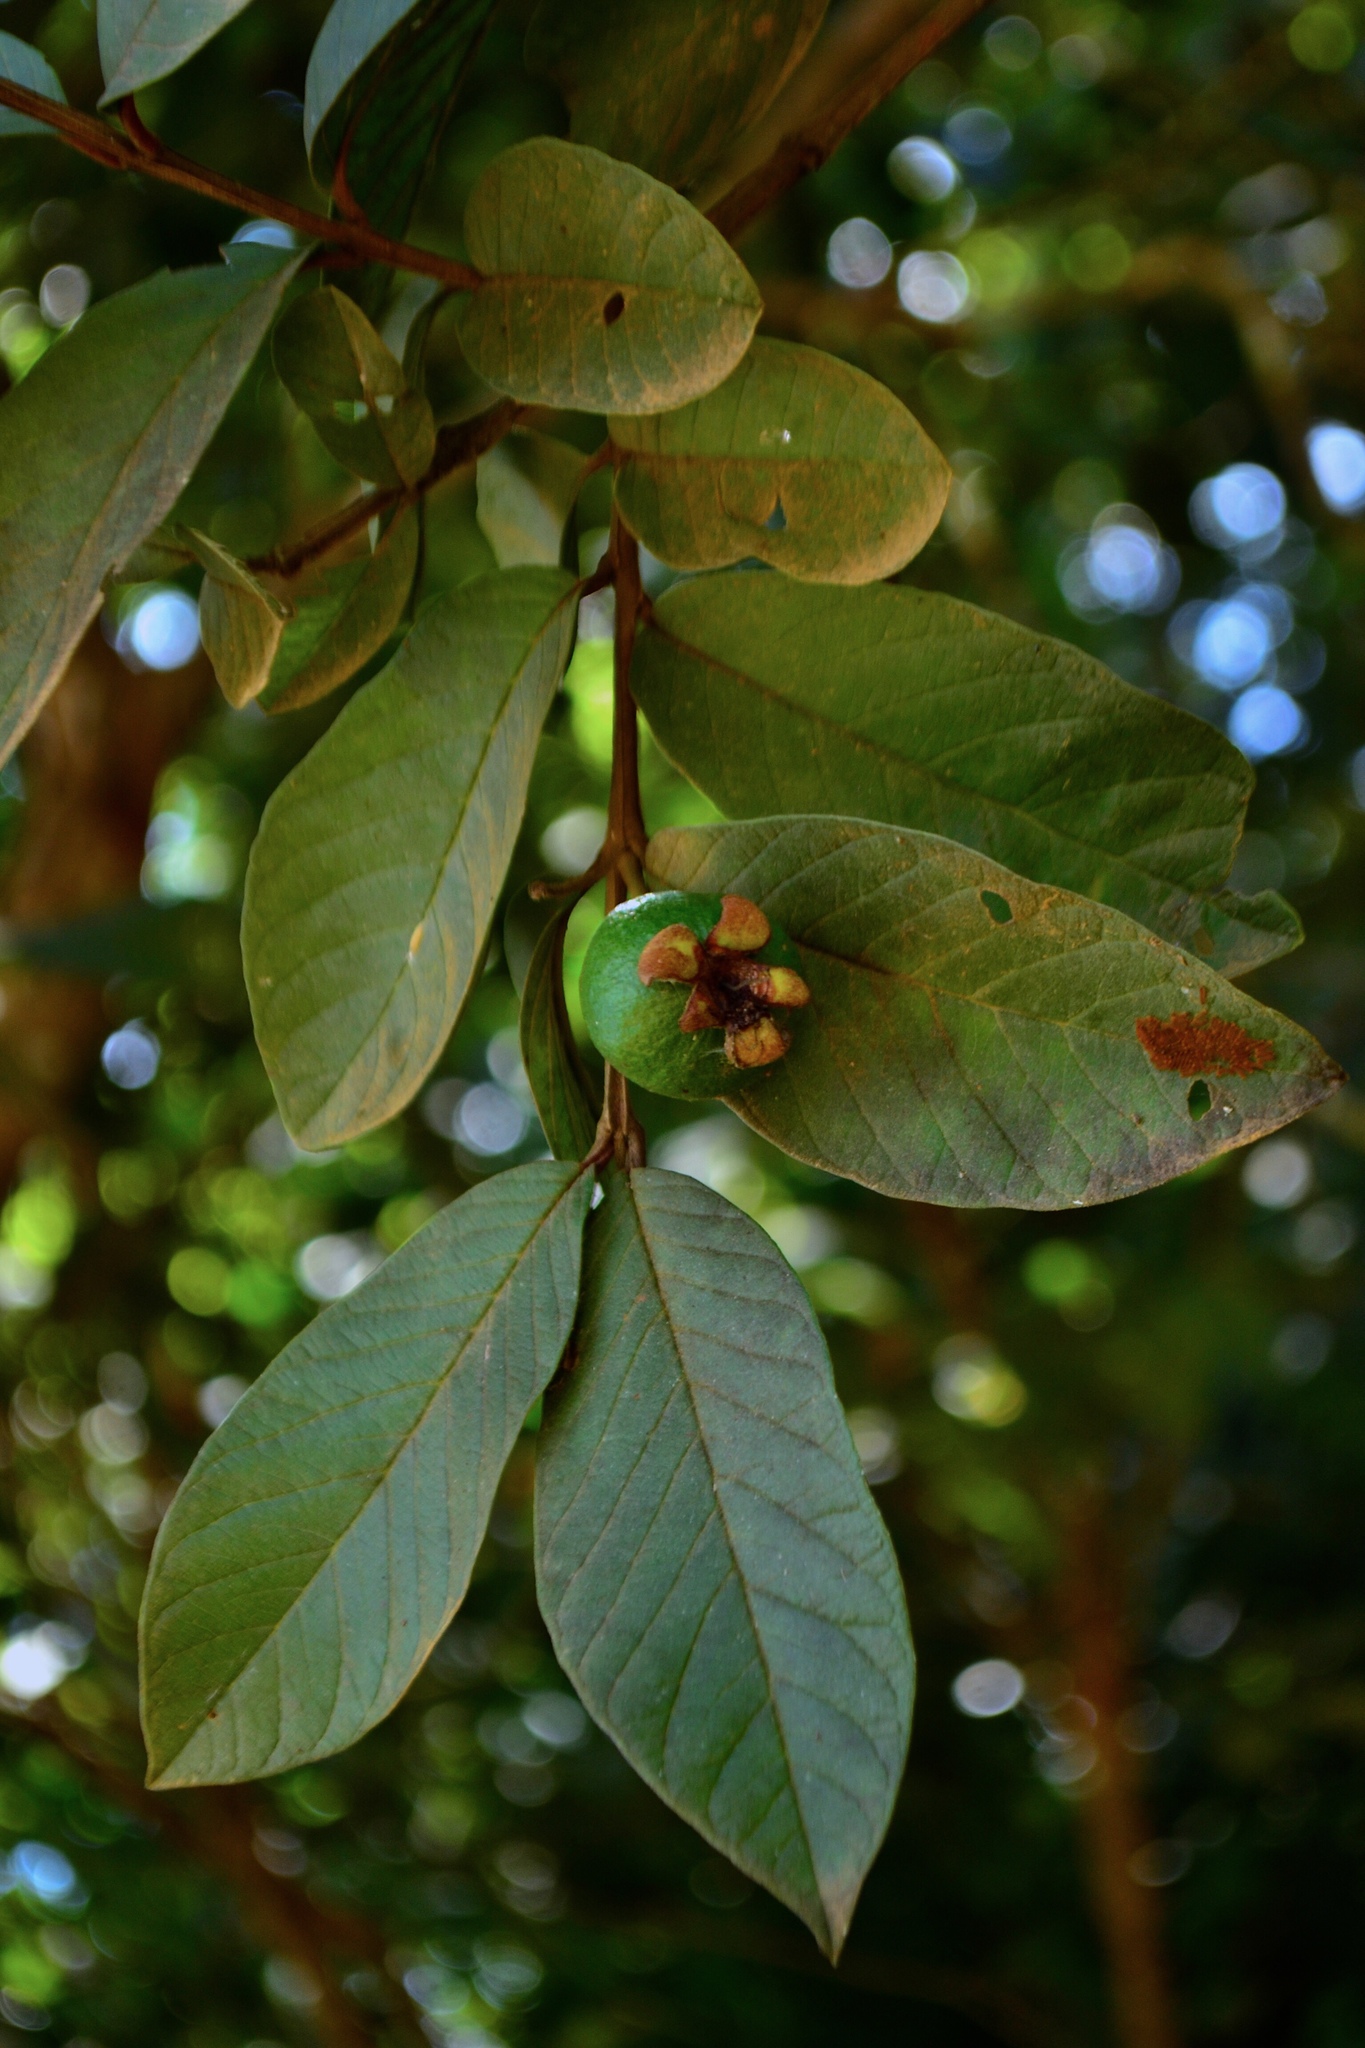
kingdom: Plantae
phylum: Tracheophyta
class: Magnoliopsida
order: Myrtales
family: Myrtaceae
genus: Psidium
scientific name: Psidium guineense
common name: Brazilian guava
